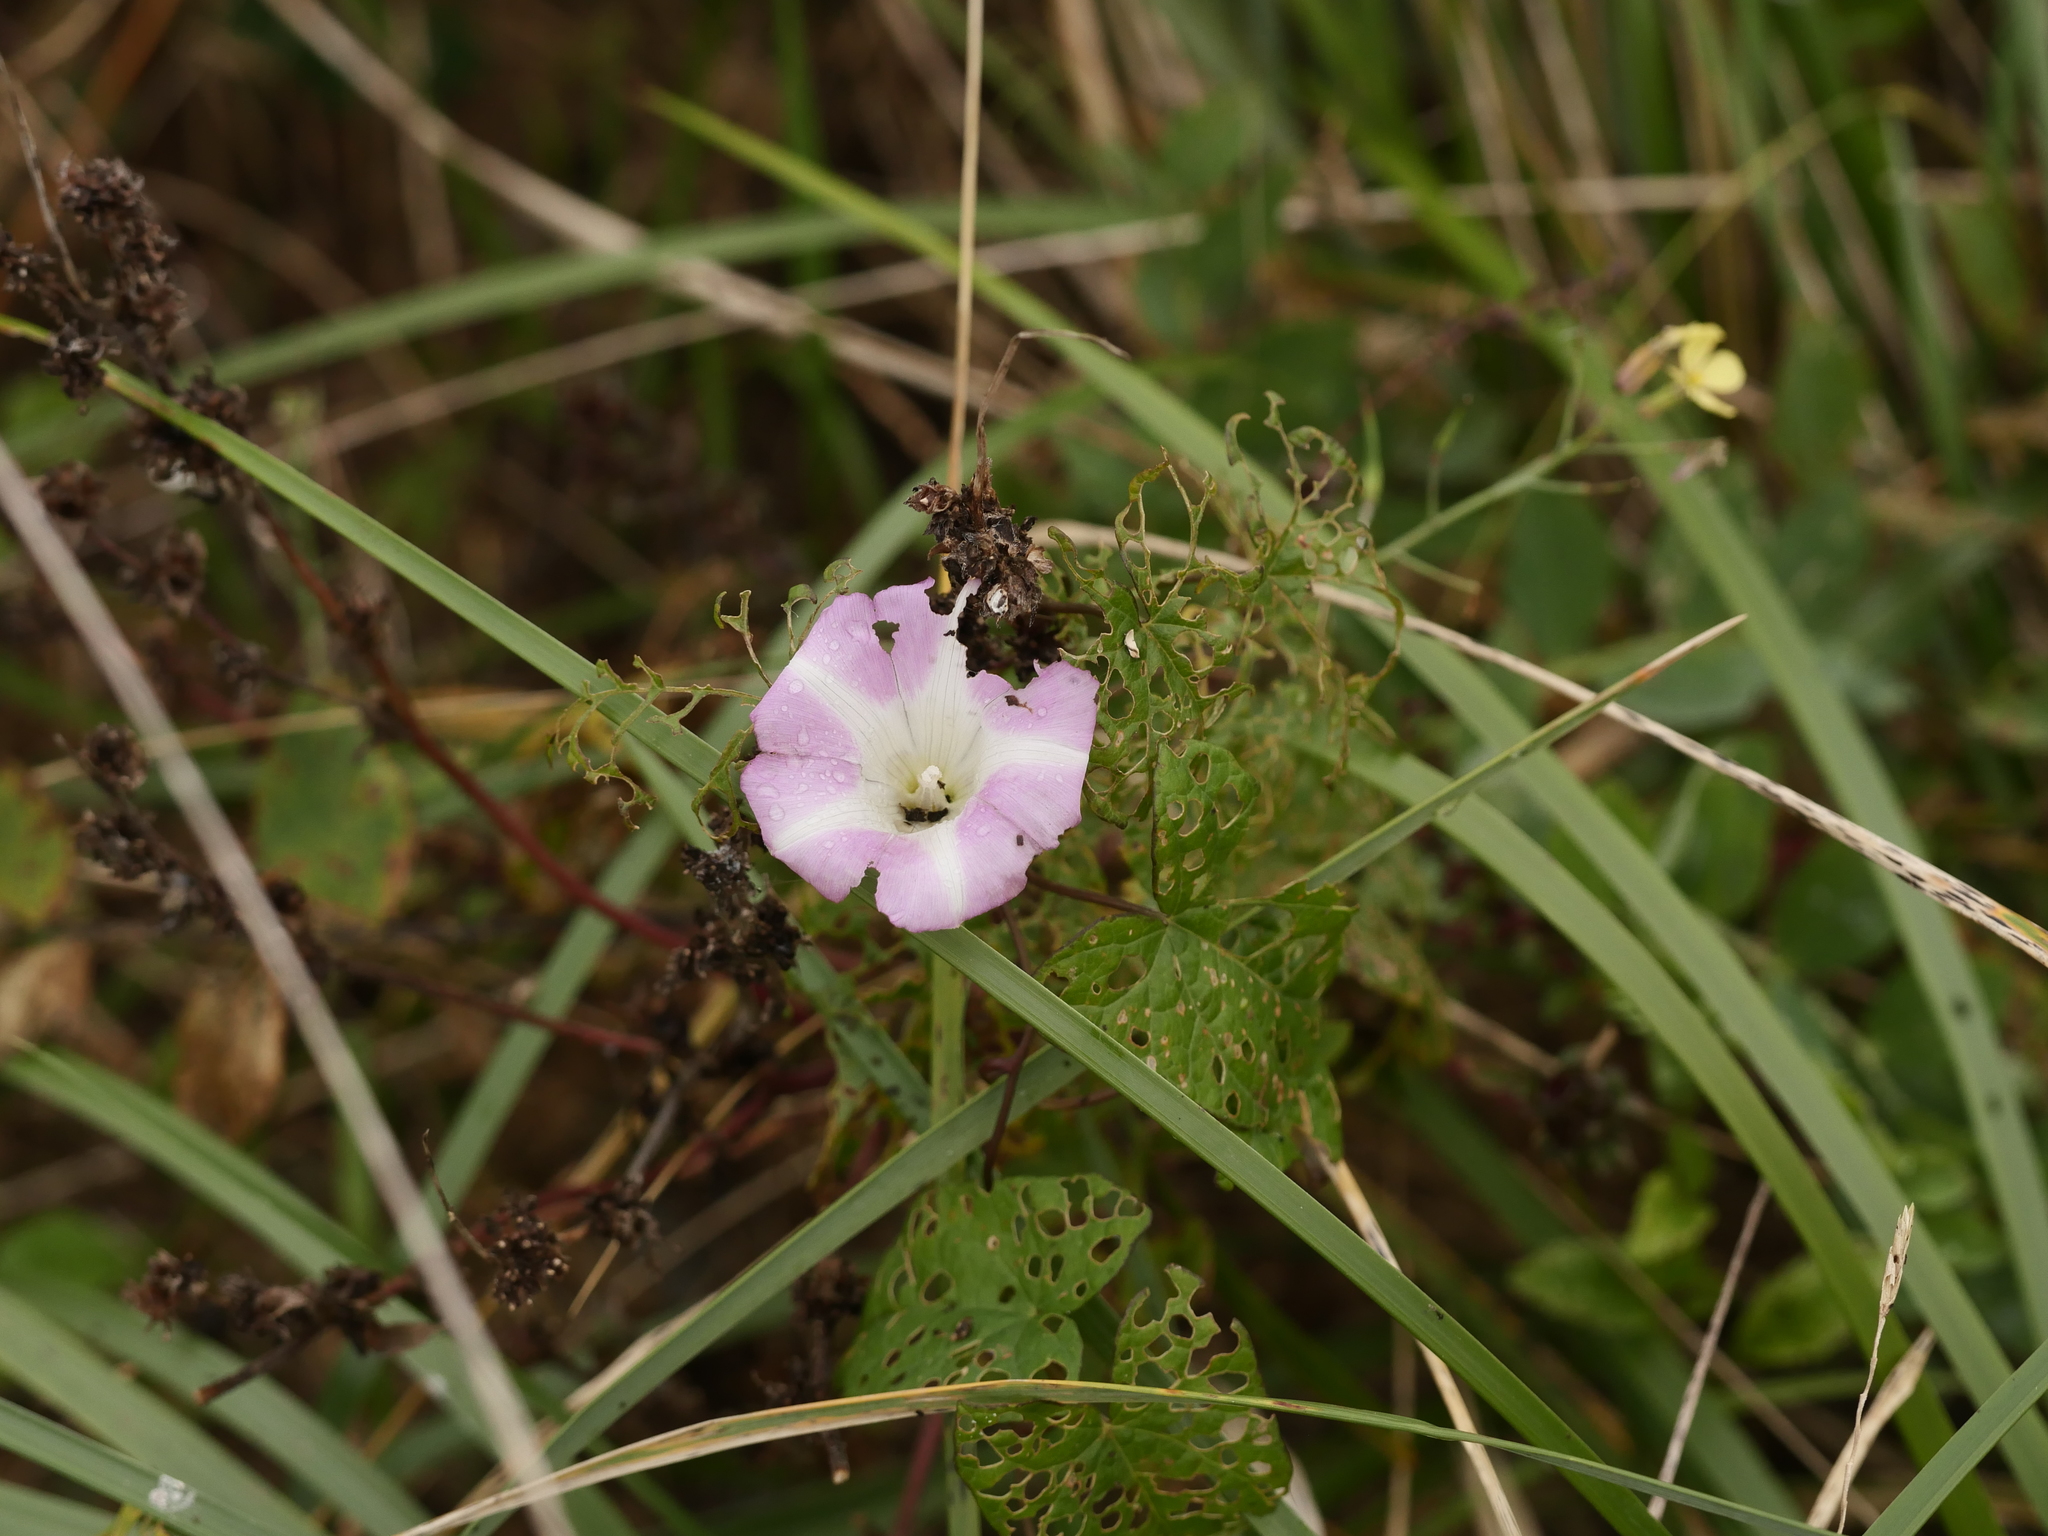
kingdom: Plantae
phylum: Tracheophyta
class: Magnoliopsida
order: Solanales
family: Convolvulaceae
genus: Calystegia
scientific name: Calystegia sepium
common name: Hedge bindweed
